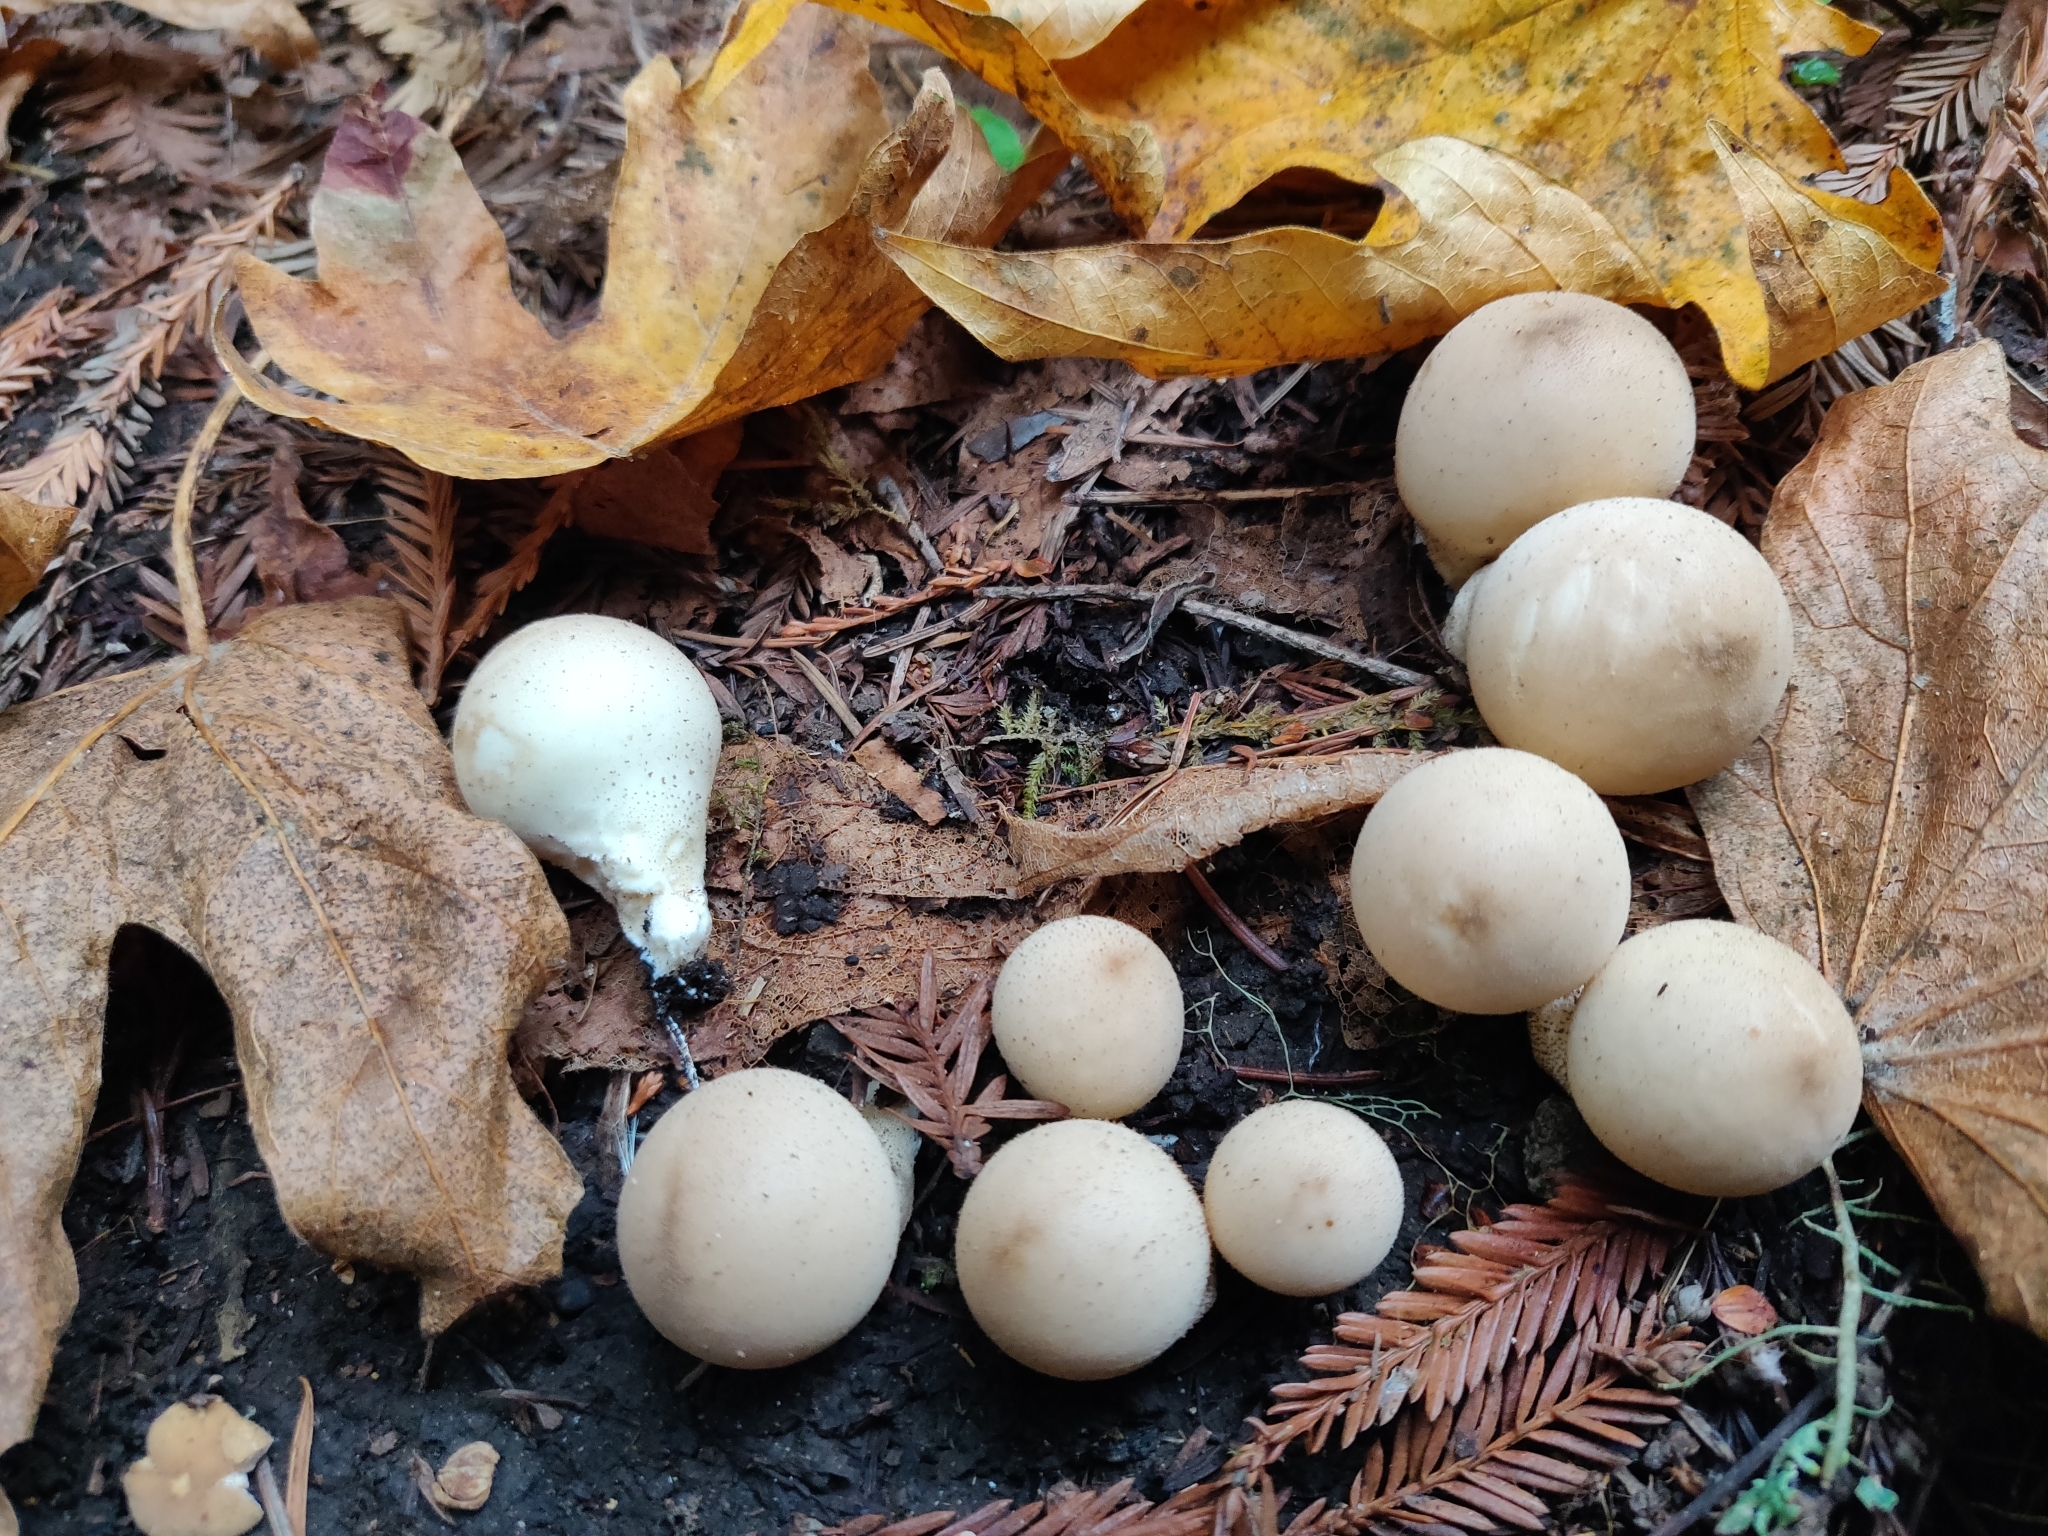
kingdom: Fungi
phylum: Basidiomycota
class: Agaricomycetes
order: Agaricales
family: Lycoperdaceae
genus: Apioperdon
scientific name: Apioperdon pyriforme
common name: Pear-shaped puffball
